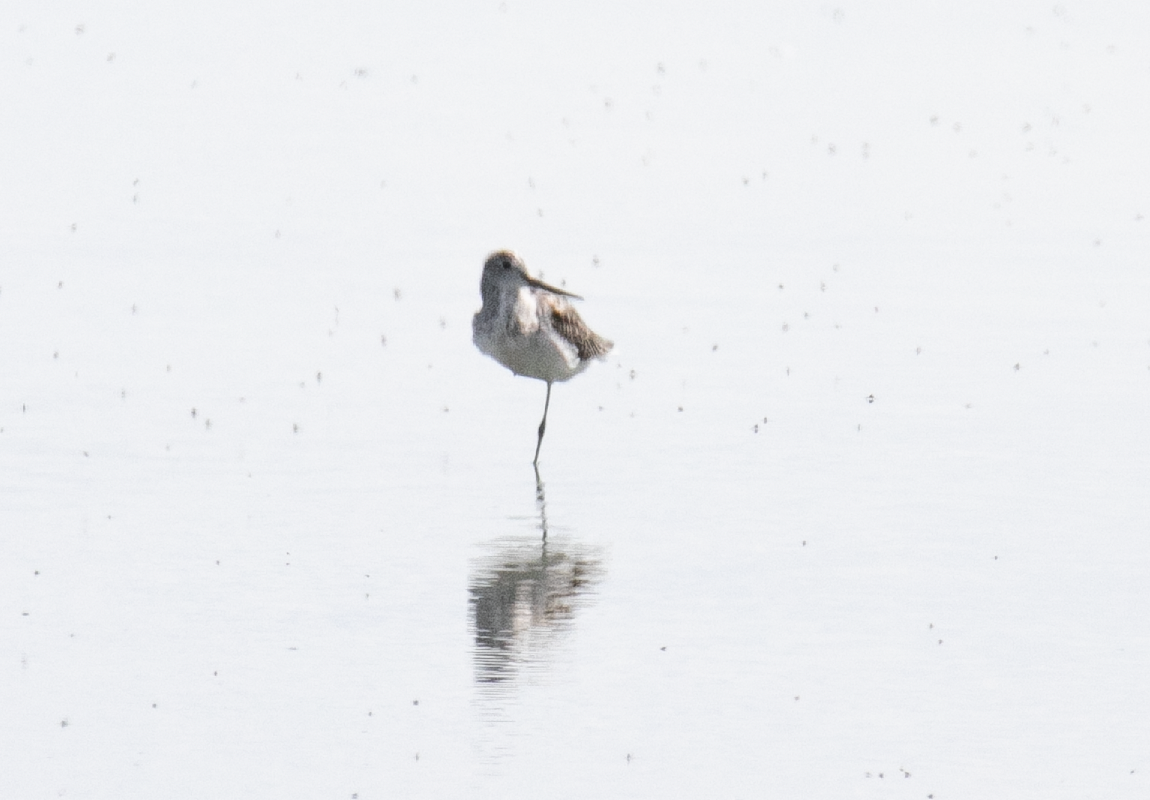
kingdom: Animalia
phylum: Chordata
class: Aves
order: Charadriiformes
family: Scolopacidae
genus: Tringa
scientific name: Tringa nebularia
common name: Common greenshank
